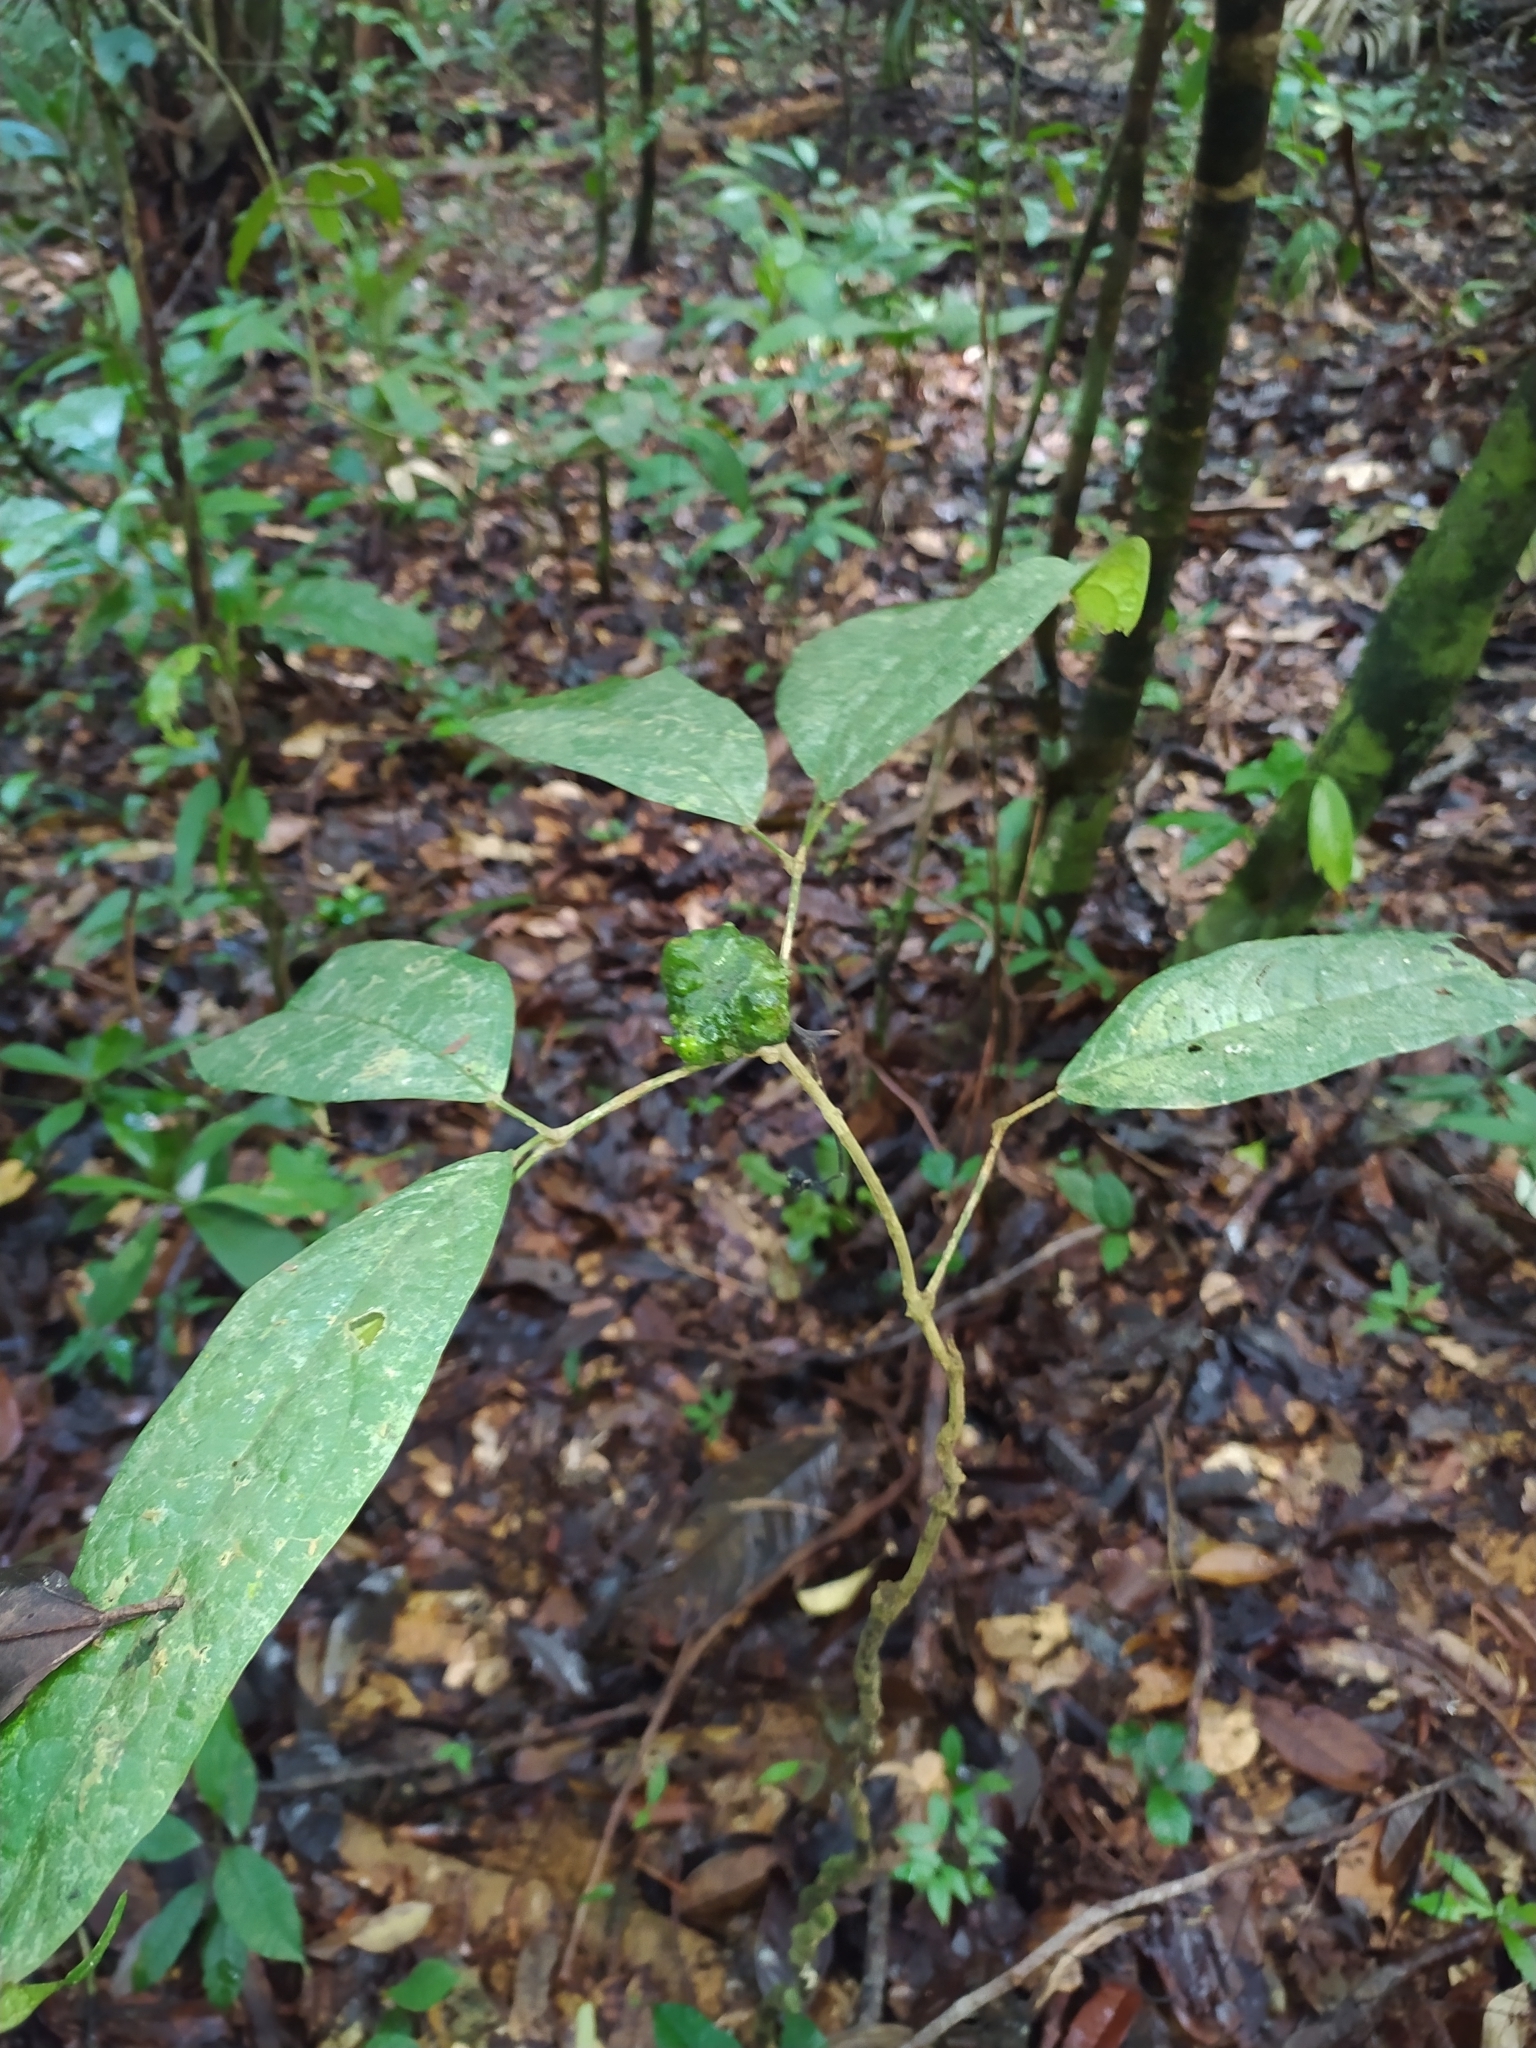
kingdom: Plantae
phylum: Tracheophyta
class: Magnoliopsida
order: Lamiales
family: Bignoniaceae
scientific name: Bignoniaceae
